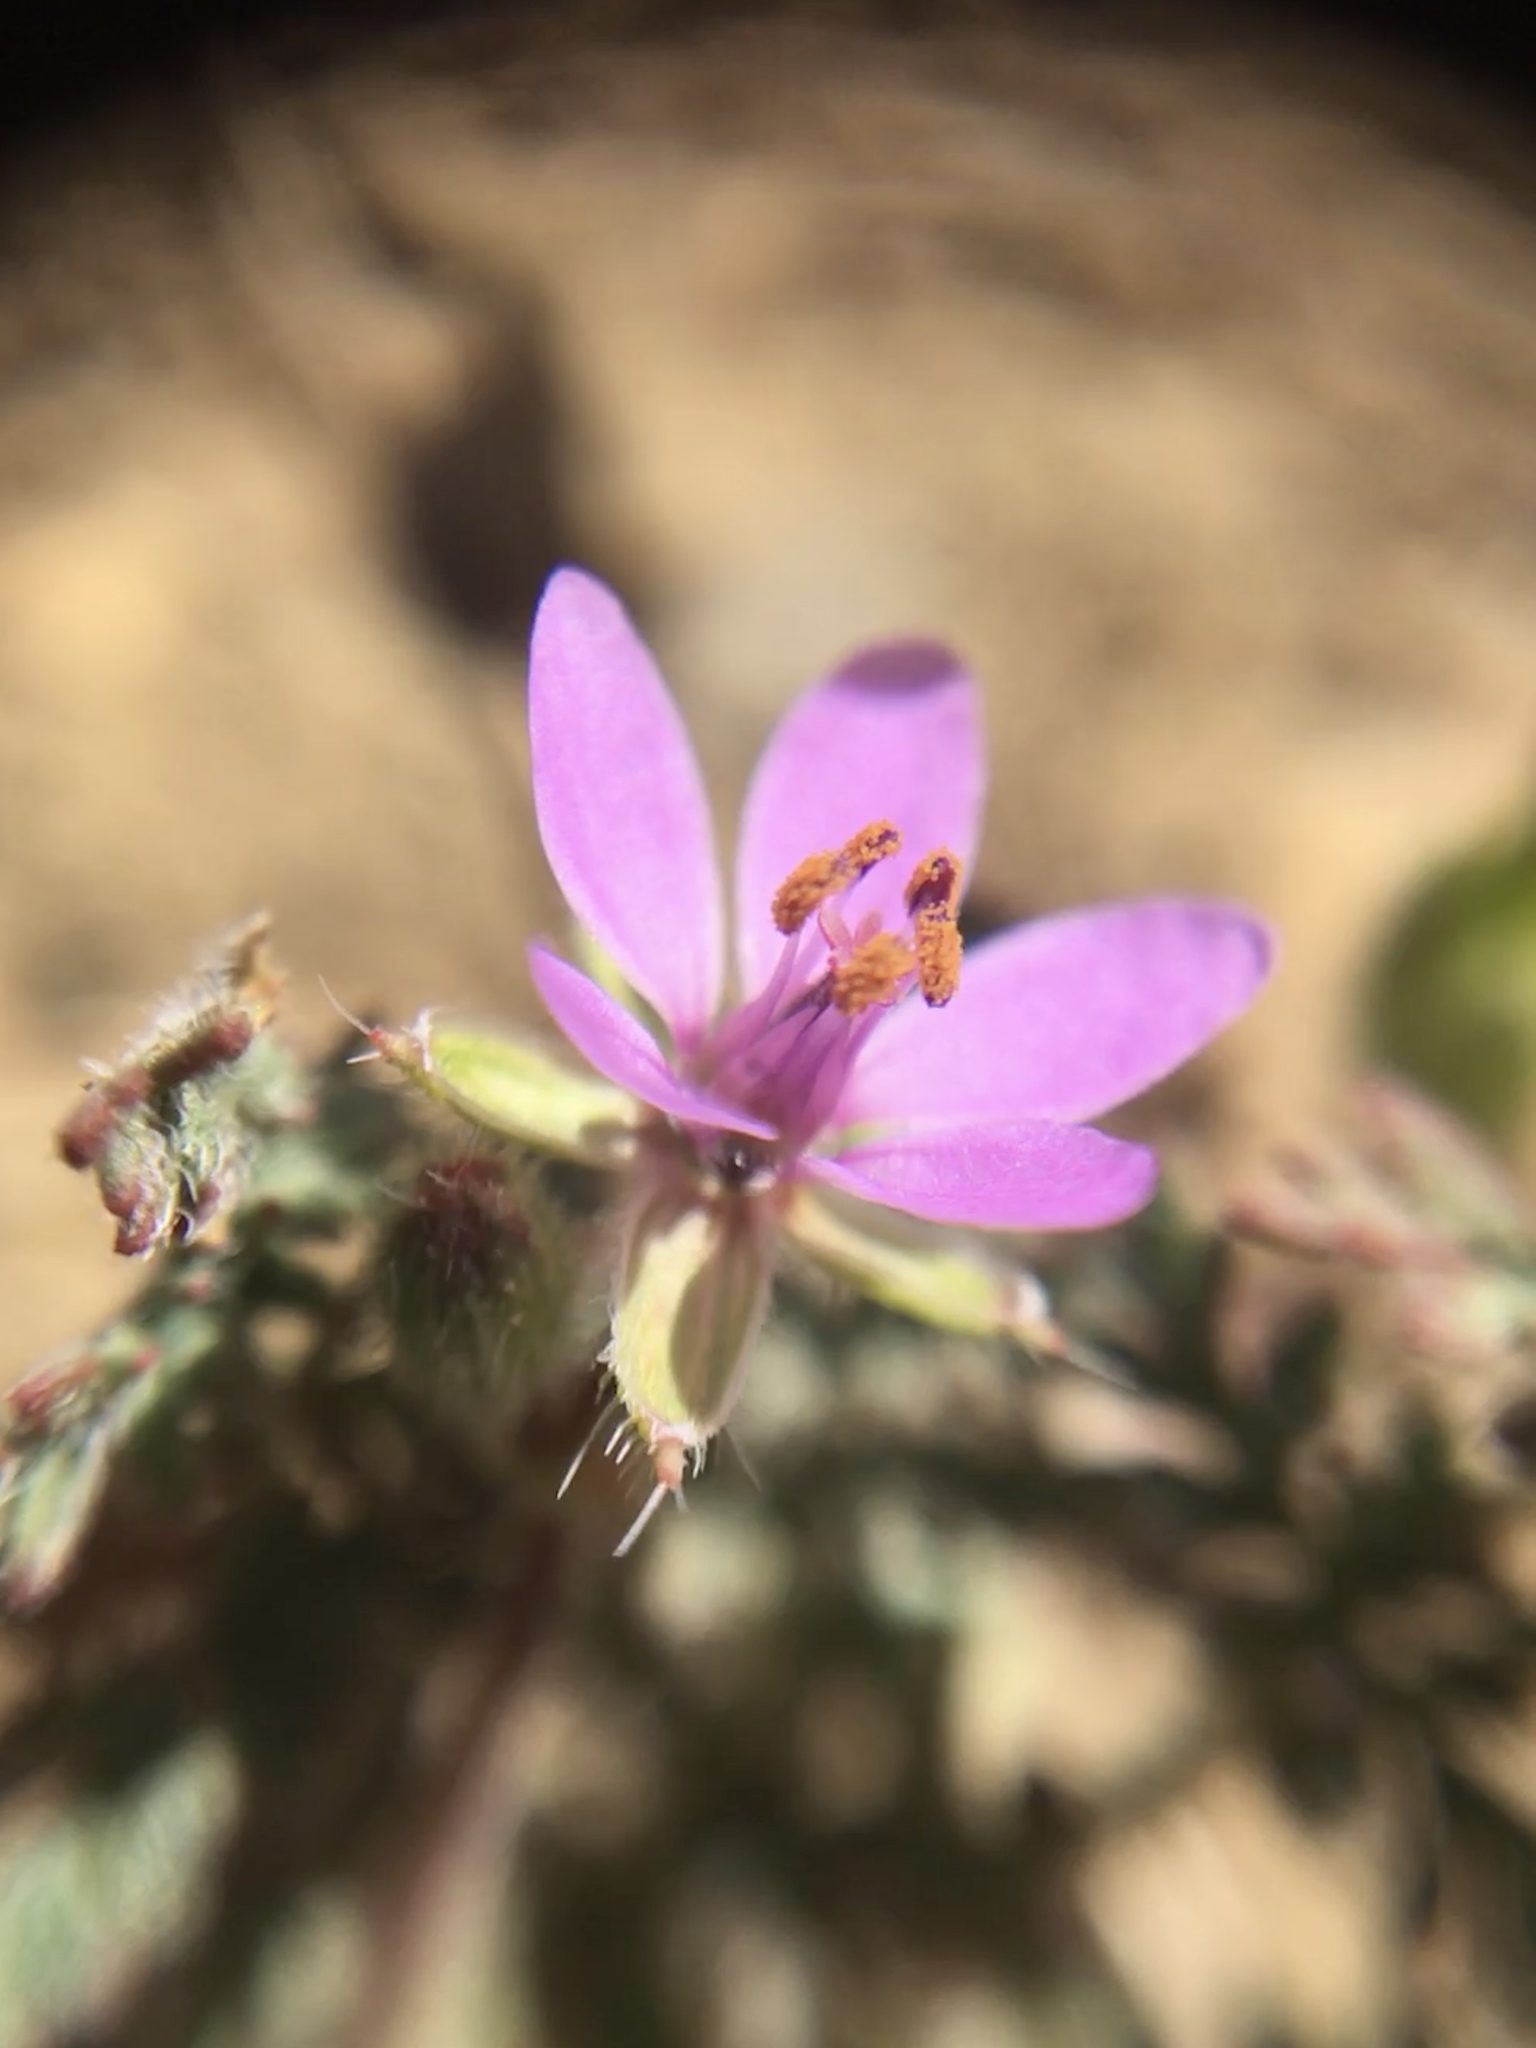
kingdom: Plantae
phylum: Tracheophyta
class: Magnoliopsida
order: Geraniales
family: Geraniaceae
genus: Erodium
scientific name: Erodium cicutarium
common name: Common stork's-bill
